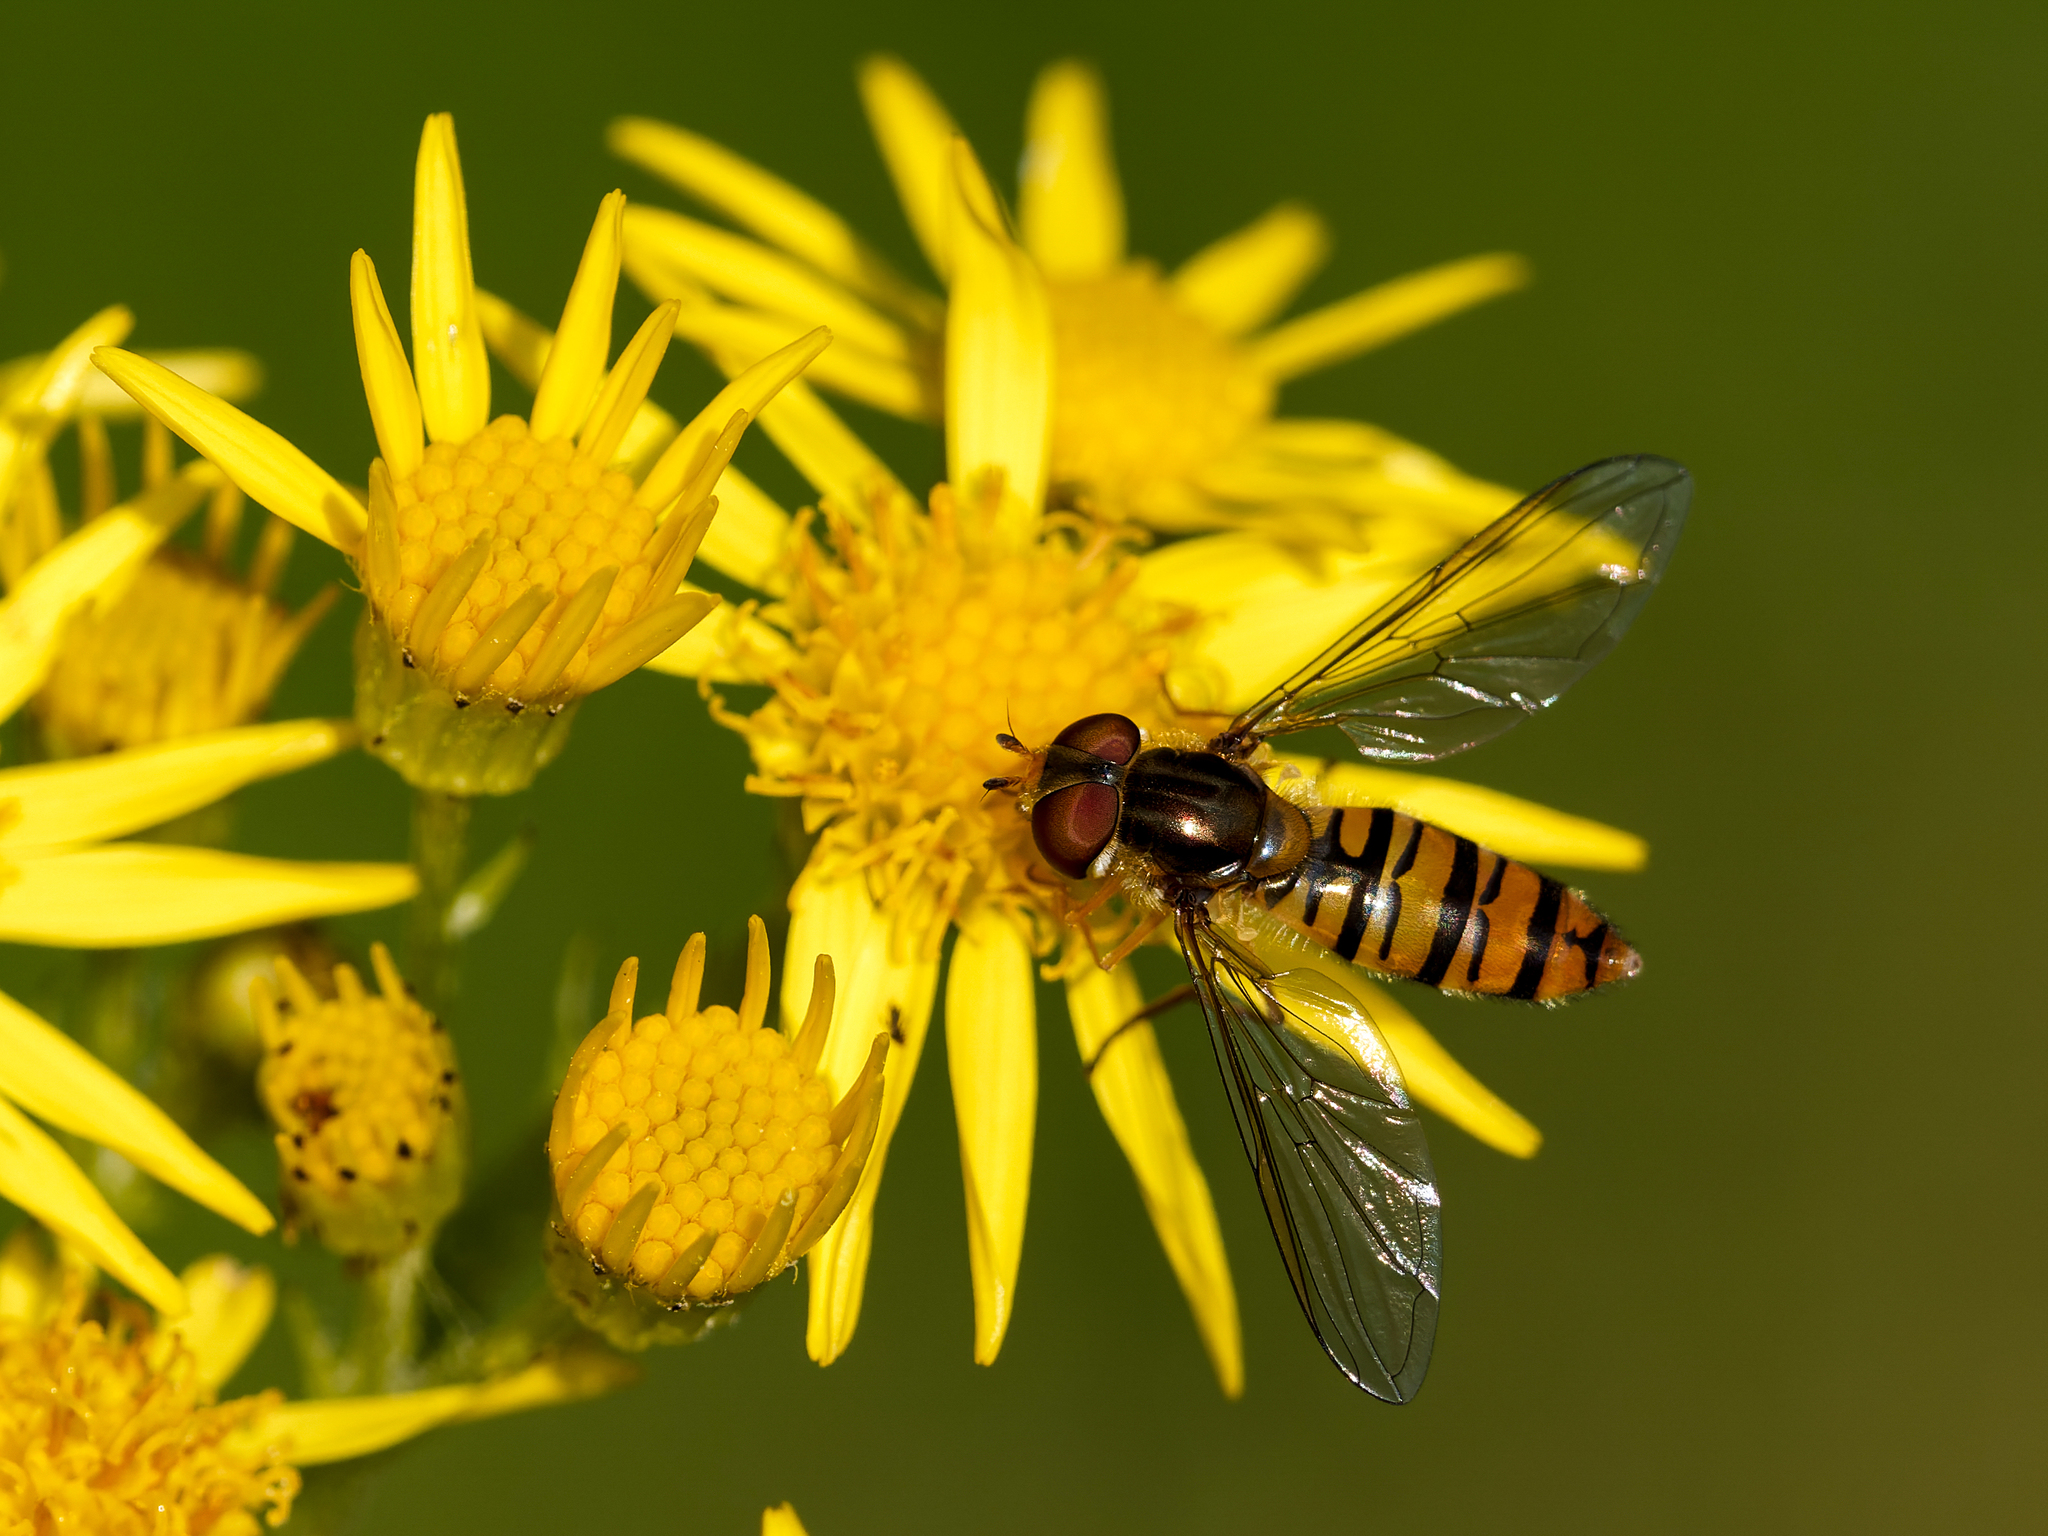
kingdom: Animalia
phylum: Arthropoda
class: Insecta
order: Diptera
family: Syrphidae
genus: Episyrphus
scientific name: Episyrphus balteatus
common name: Marmalade hoverfly
